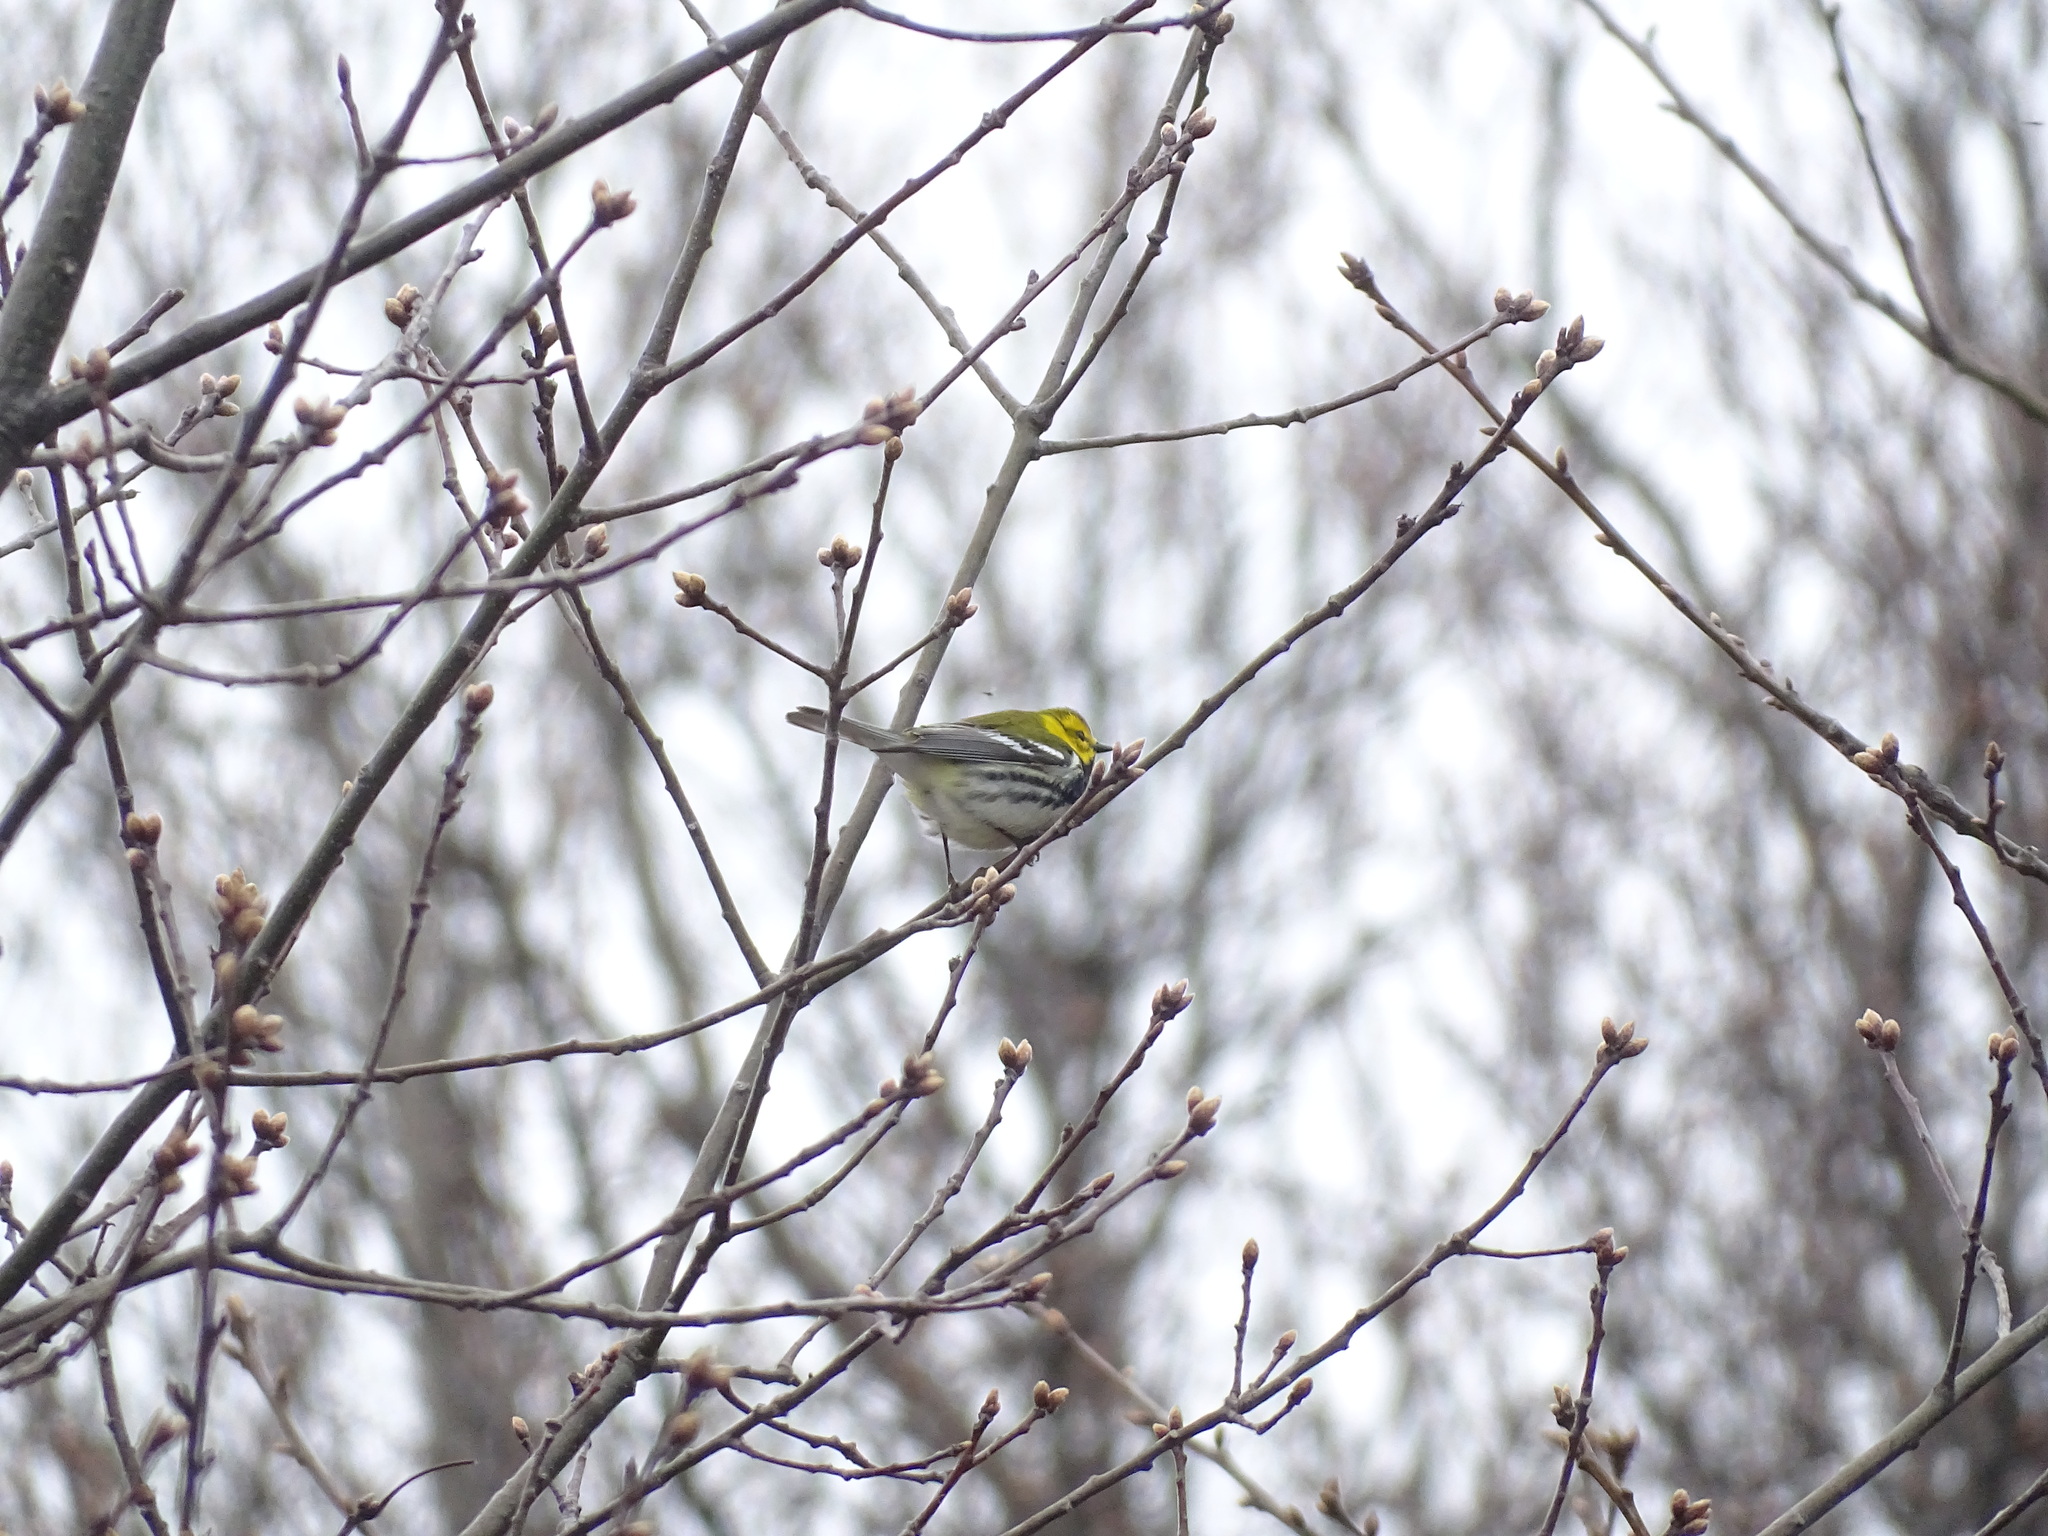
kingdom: Animalia
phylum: Chordata
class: Aves
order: Passeriformes
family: Parulidae
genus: Setophaga
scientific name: Setophaga virens
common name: Black-throated green warbler
